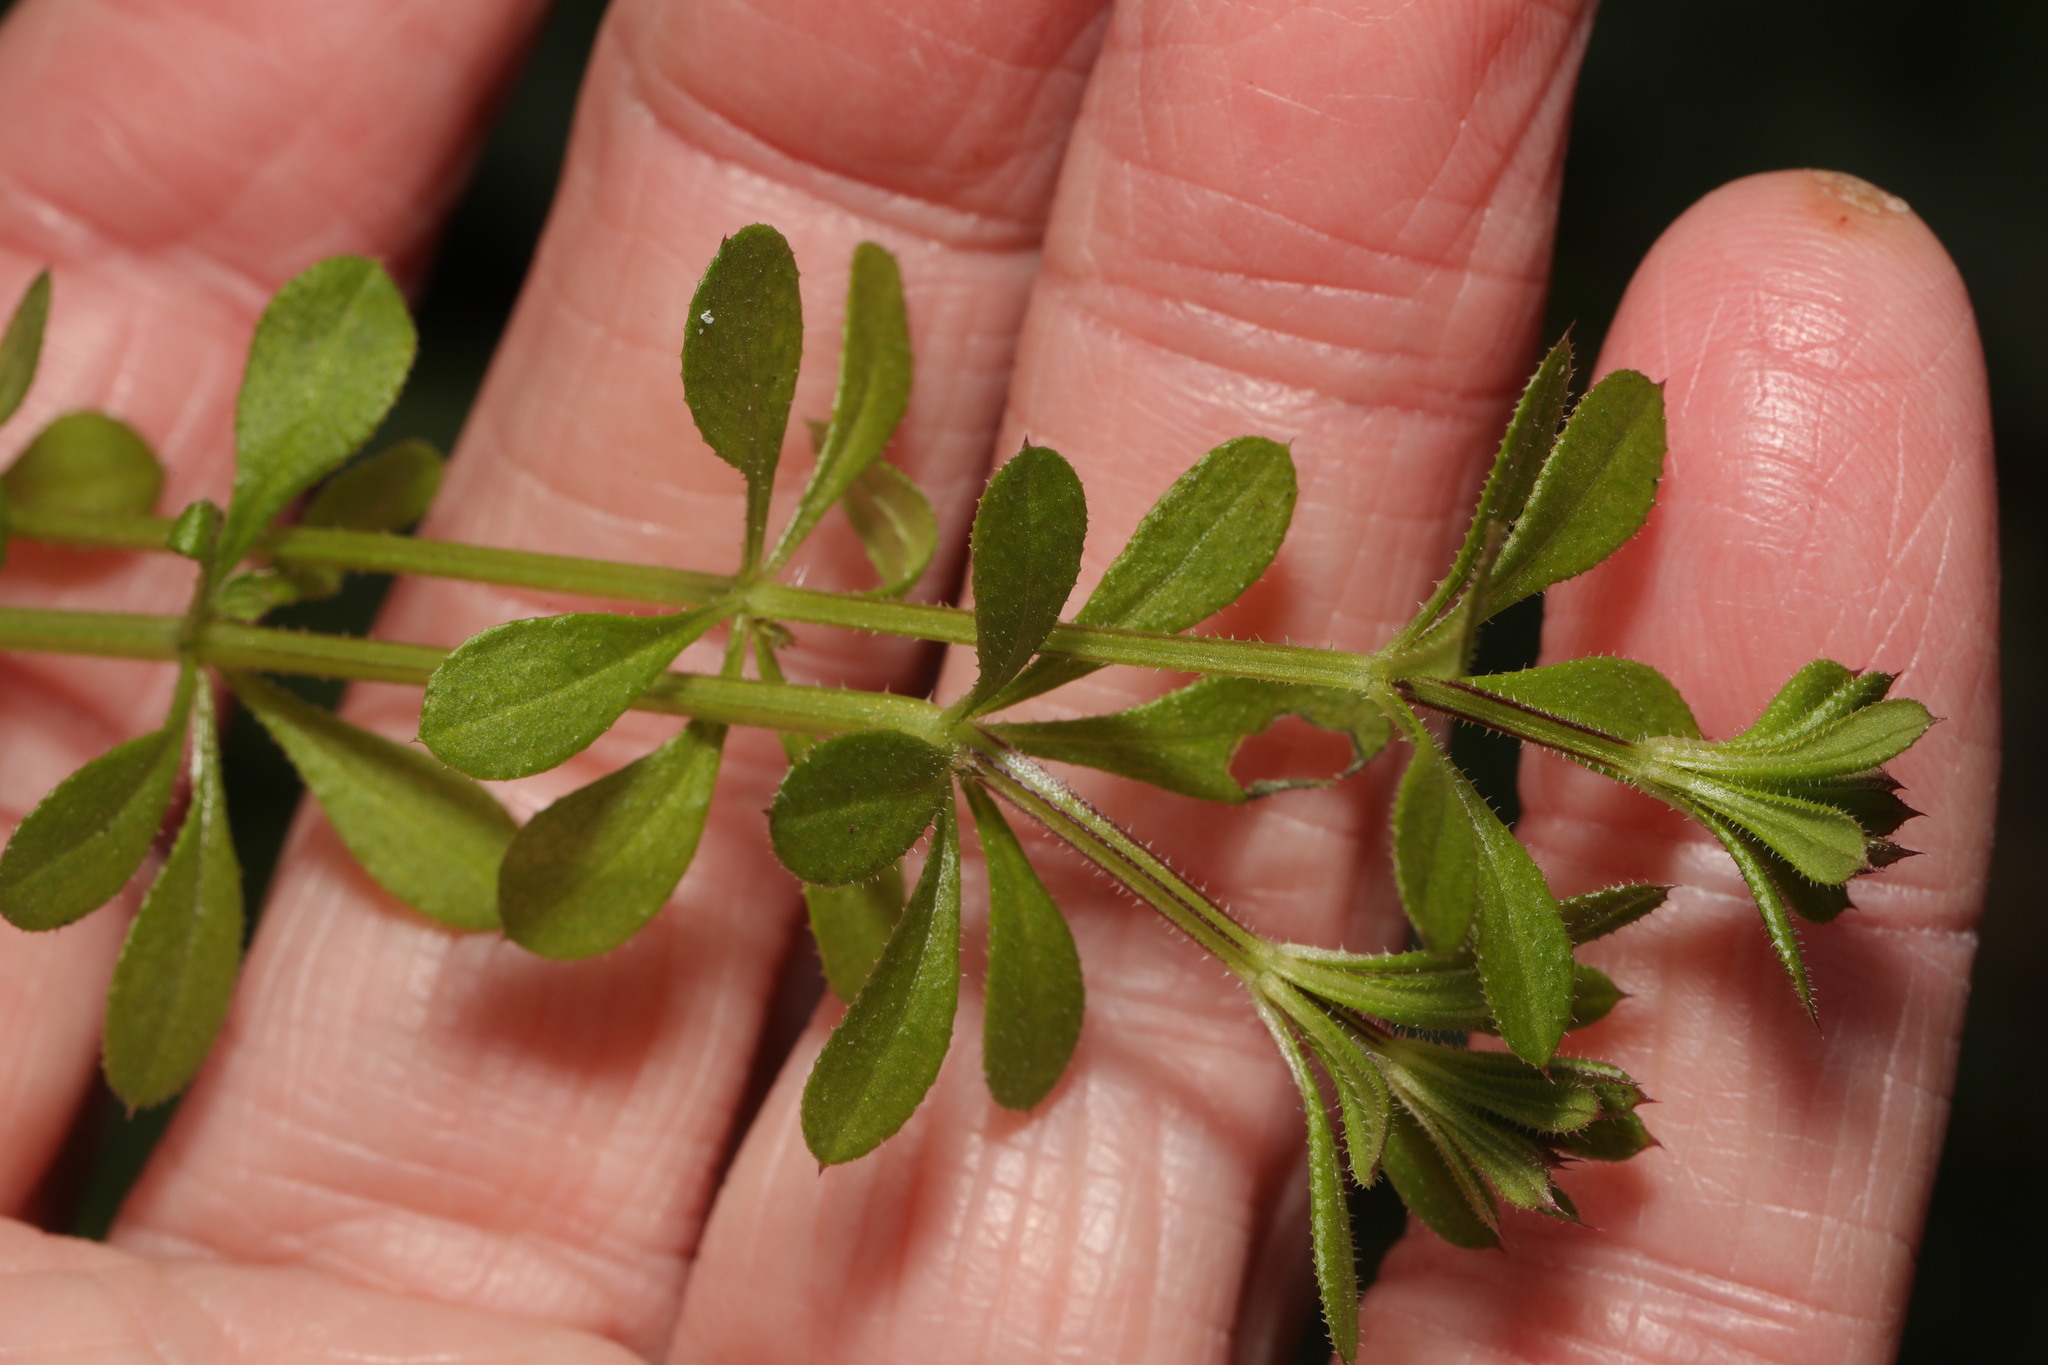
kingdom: Plantae
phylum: Tracheophyta
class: Magnoliopsida
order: Gentianales
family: Rubiaceae
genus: Galium
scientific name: Galium aparine
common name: Cleavers
